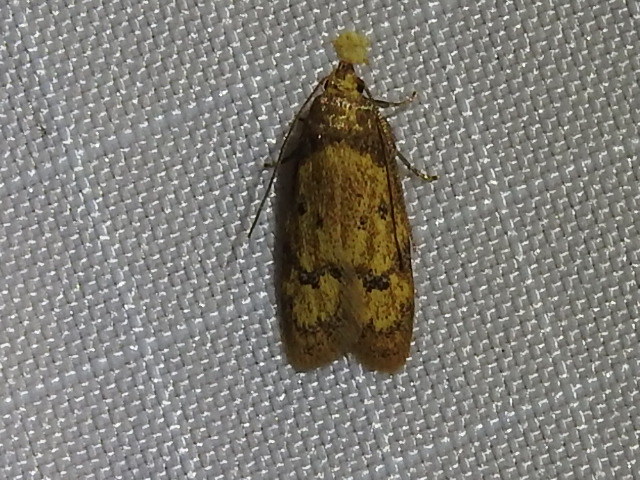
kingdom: Animalia
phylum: Arthropoda
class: Insecta
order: Lepidoptera
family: Autostichidae
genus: Gerdana
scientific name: Gerdana caritella
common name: Gerdana moth
